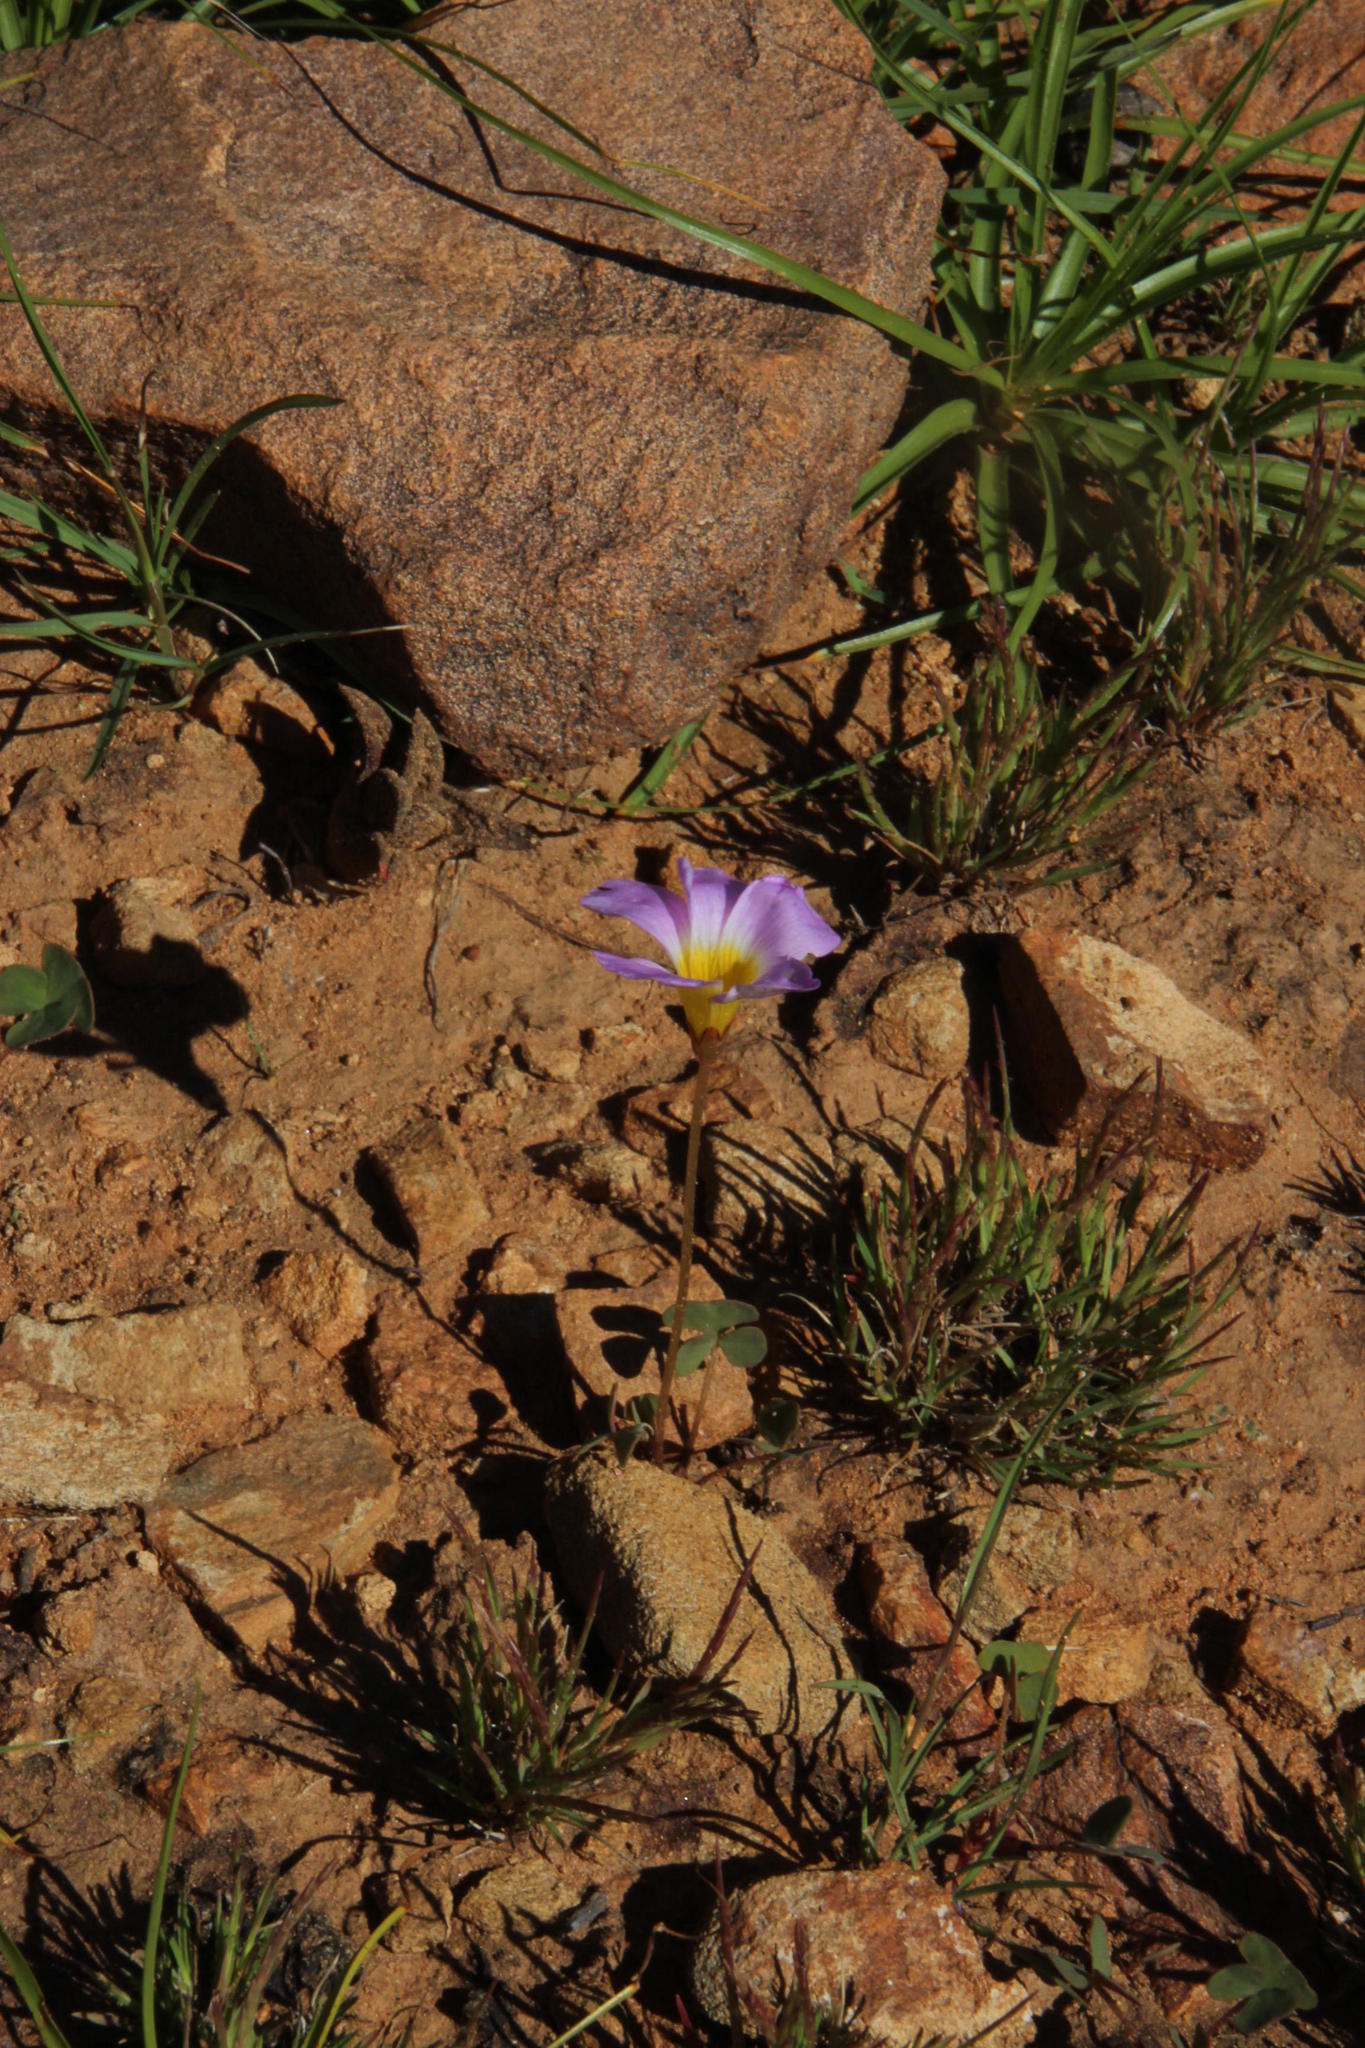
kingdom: Plantae
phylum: Tracheophyta
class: Magnoliopsida
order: Oxalidales
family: Oxalidaceae
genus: Oxalis
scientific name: Oxalis obliquifolia
